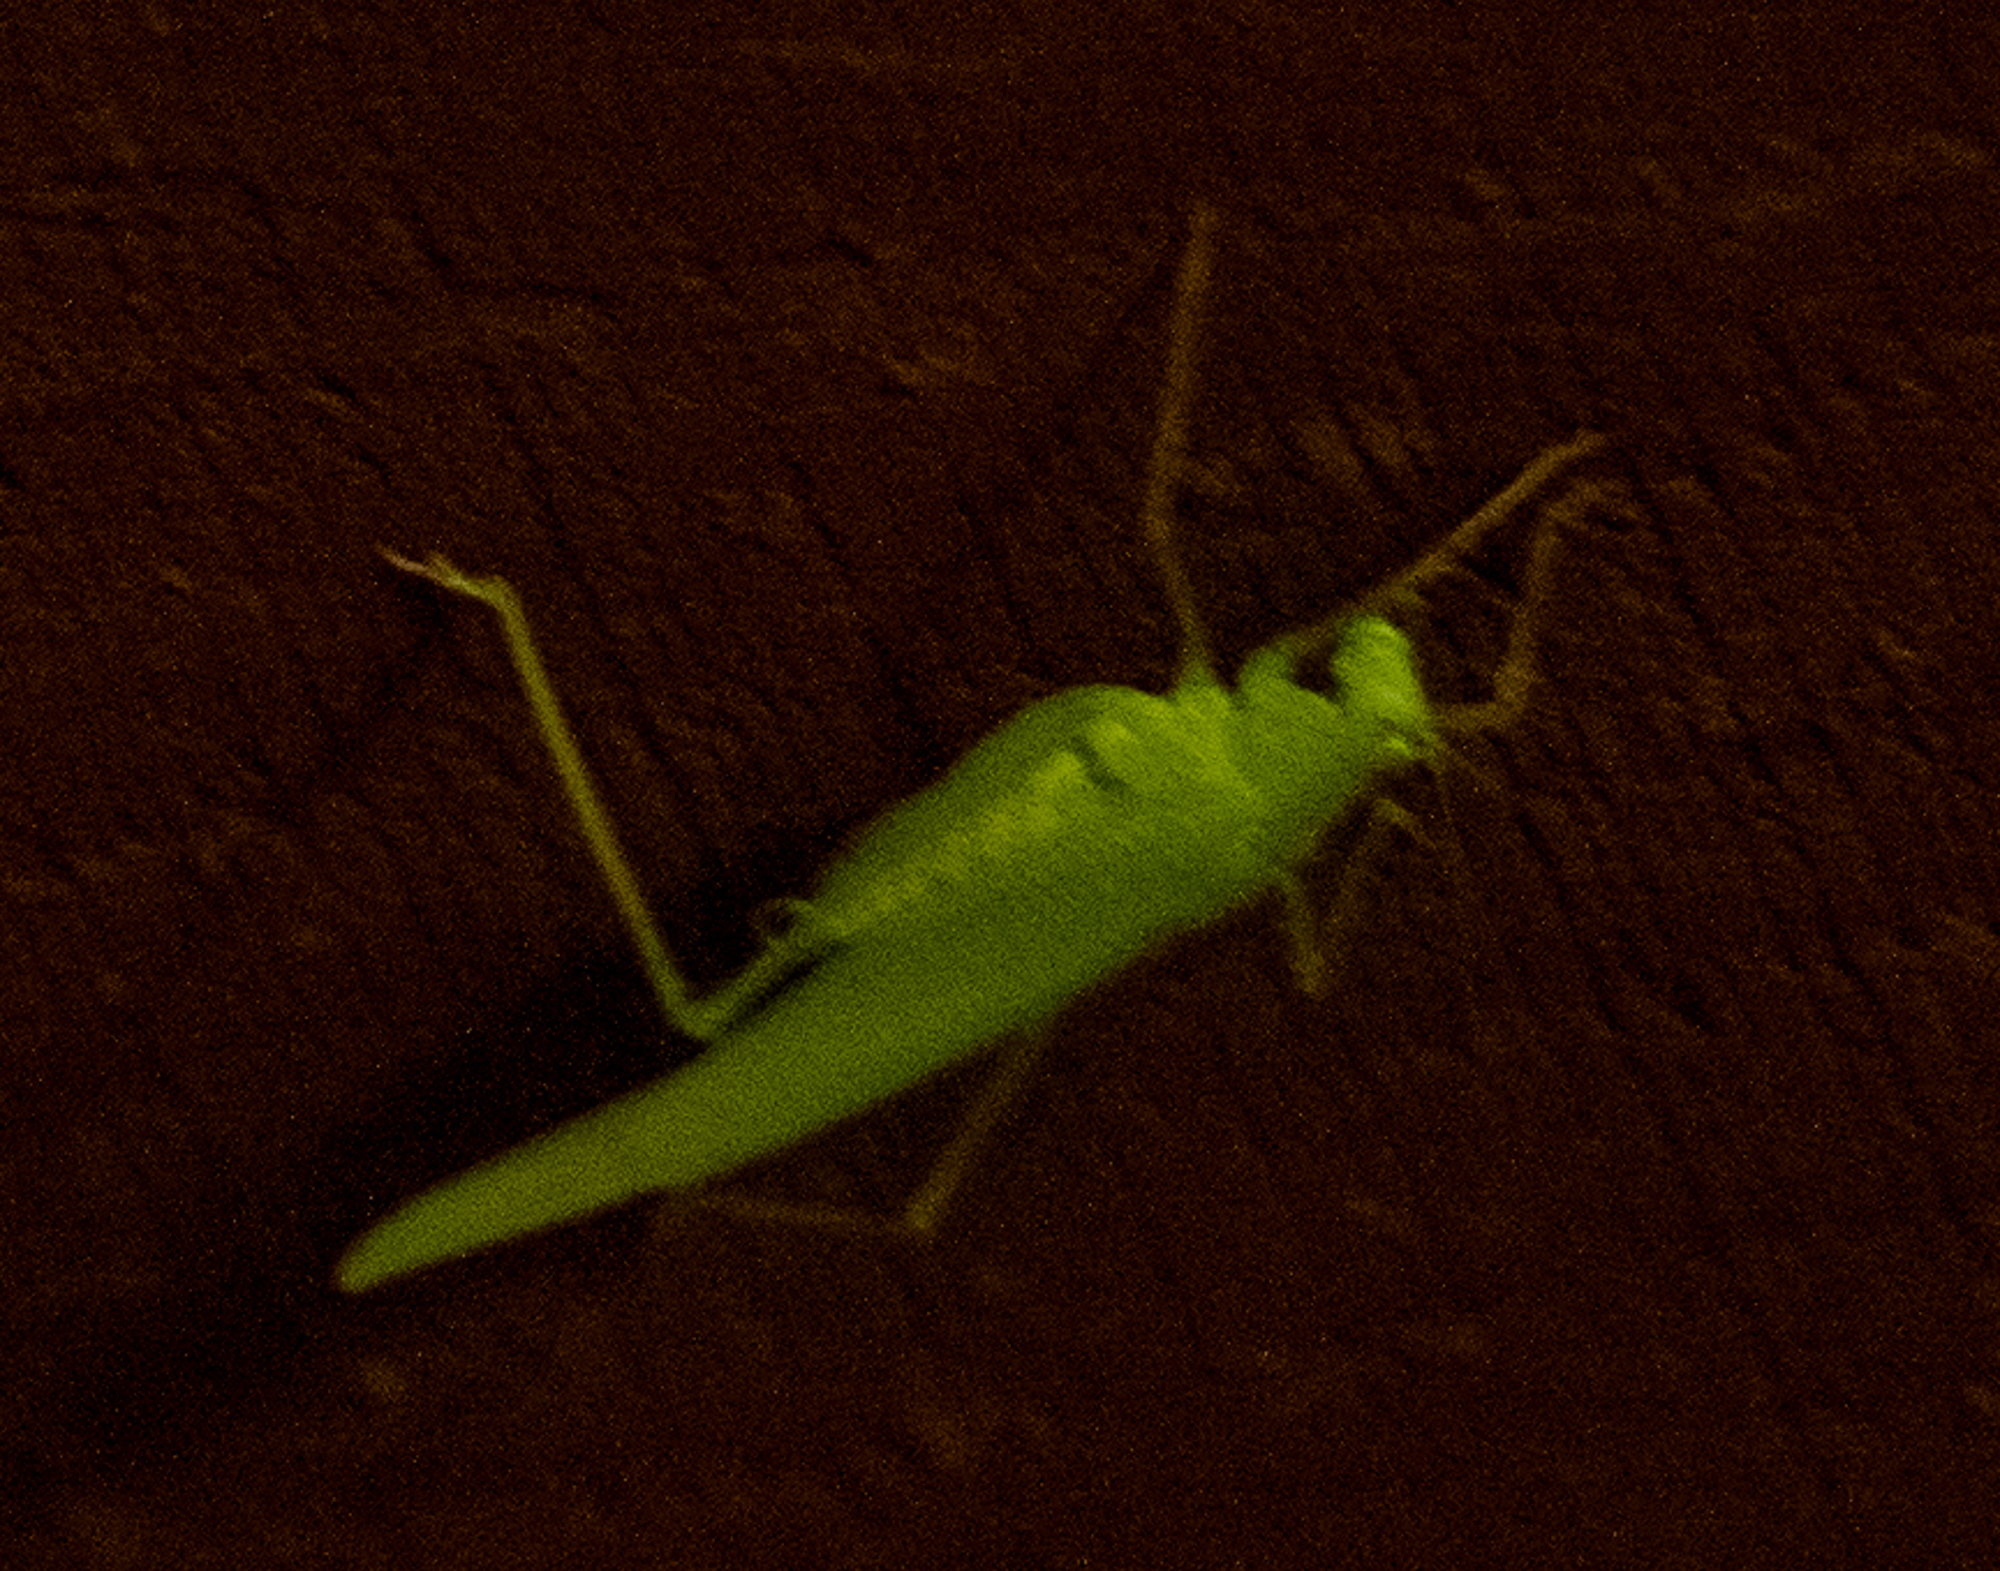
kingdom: Animalia
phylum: Arthropoda
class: Insecta
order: Orthoptera
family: Tettigoniidae
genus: Phaneroptera
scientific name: Phaneroptera nana
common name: Southern sickle bush-cricket
